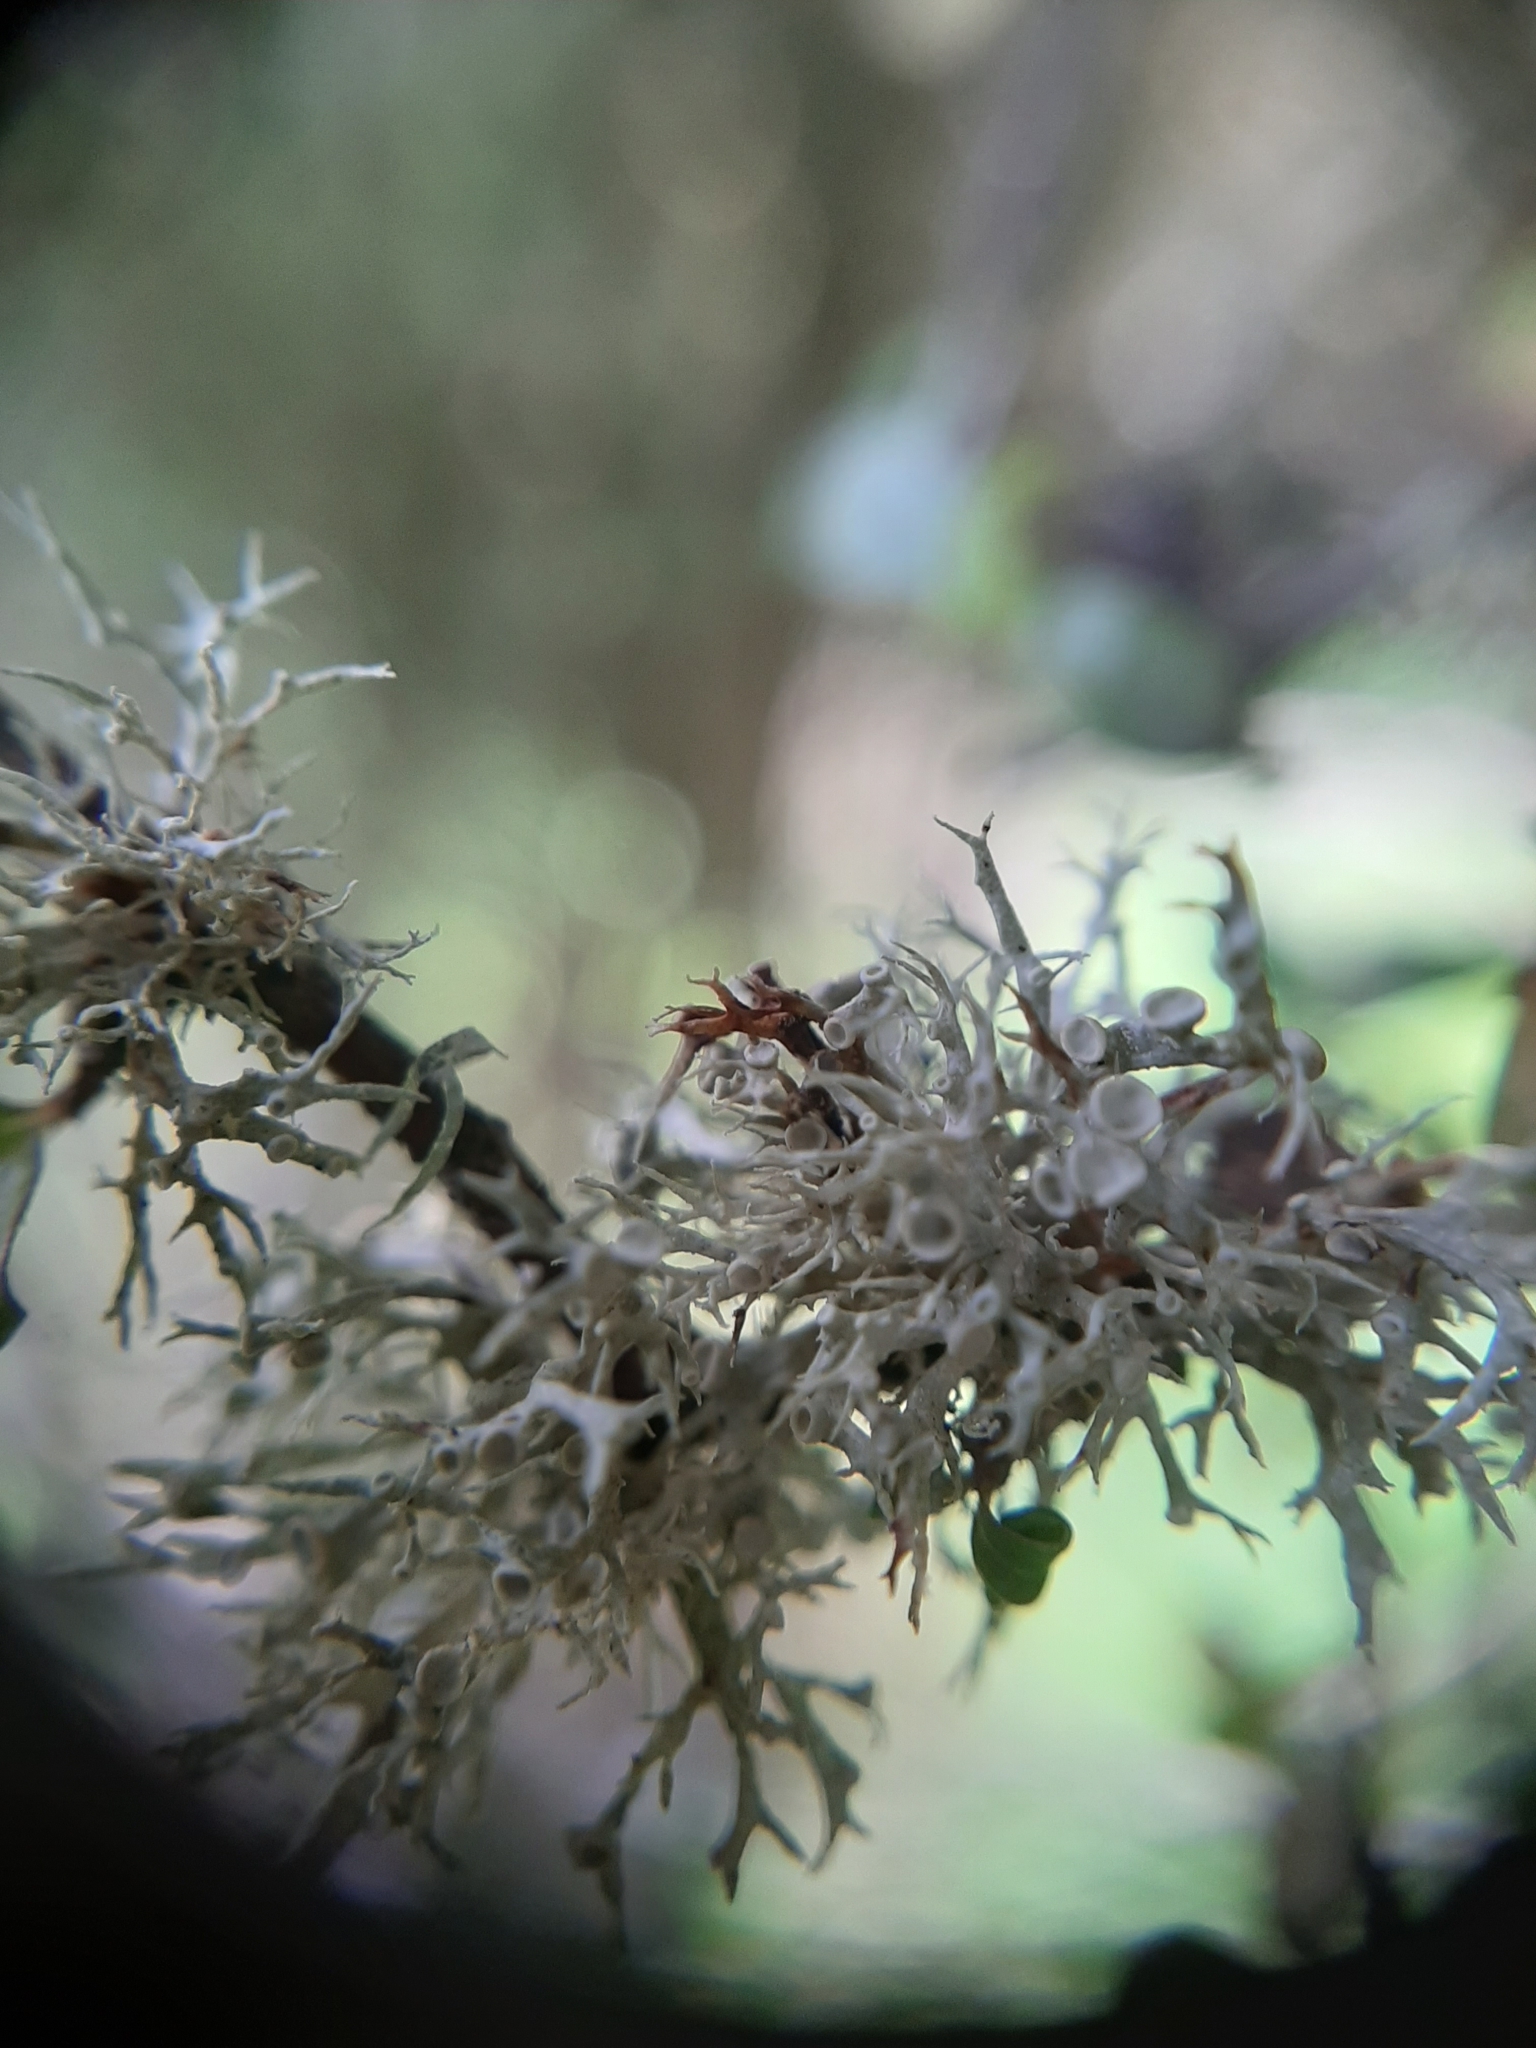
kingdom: Fungi
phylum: Ascomycota
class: Lecanoromycetes
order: Lecanorales
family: Ramalinaceae
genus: Ramalina
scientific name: Ramalina glaucescens
